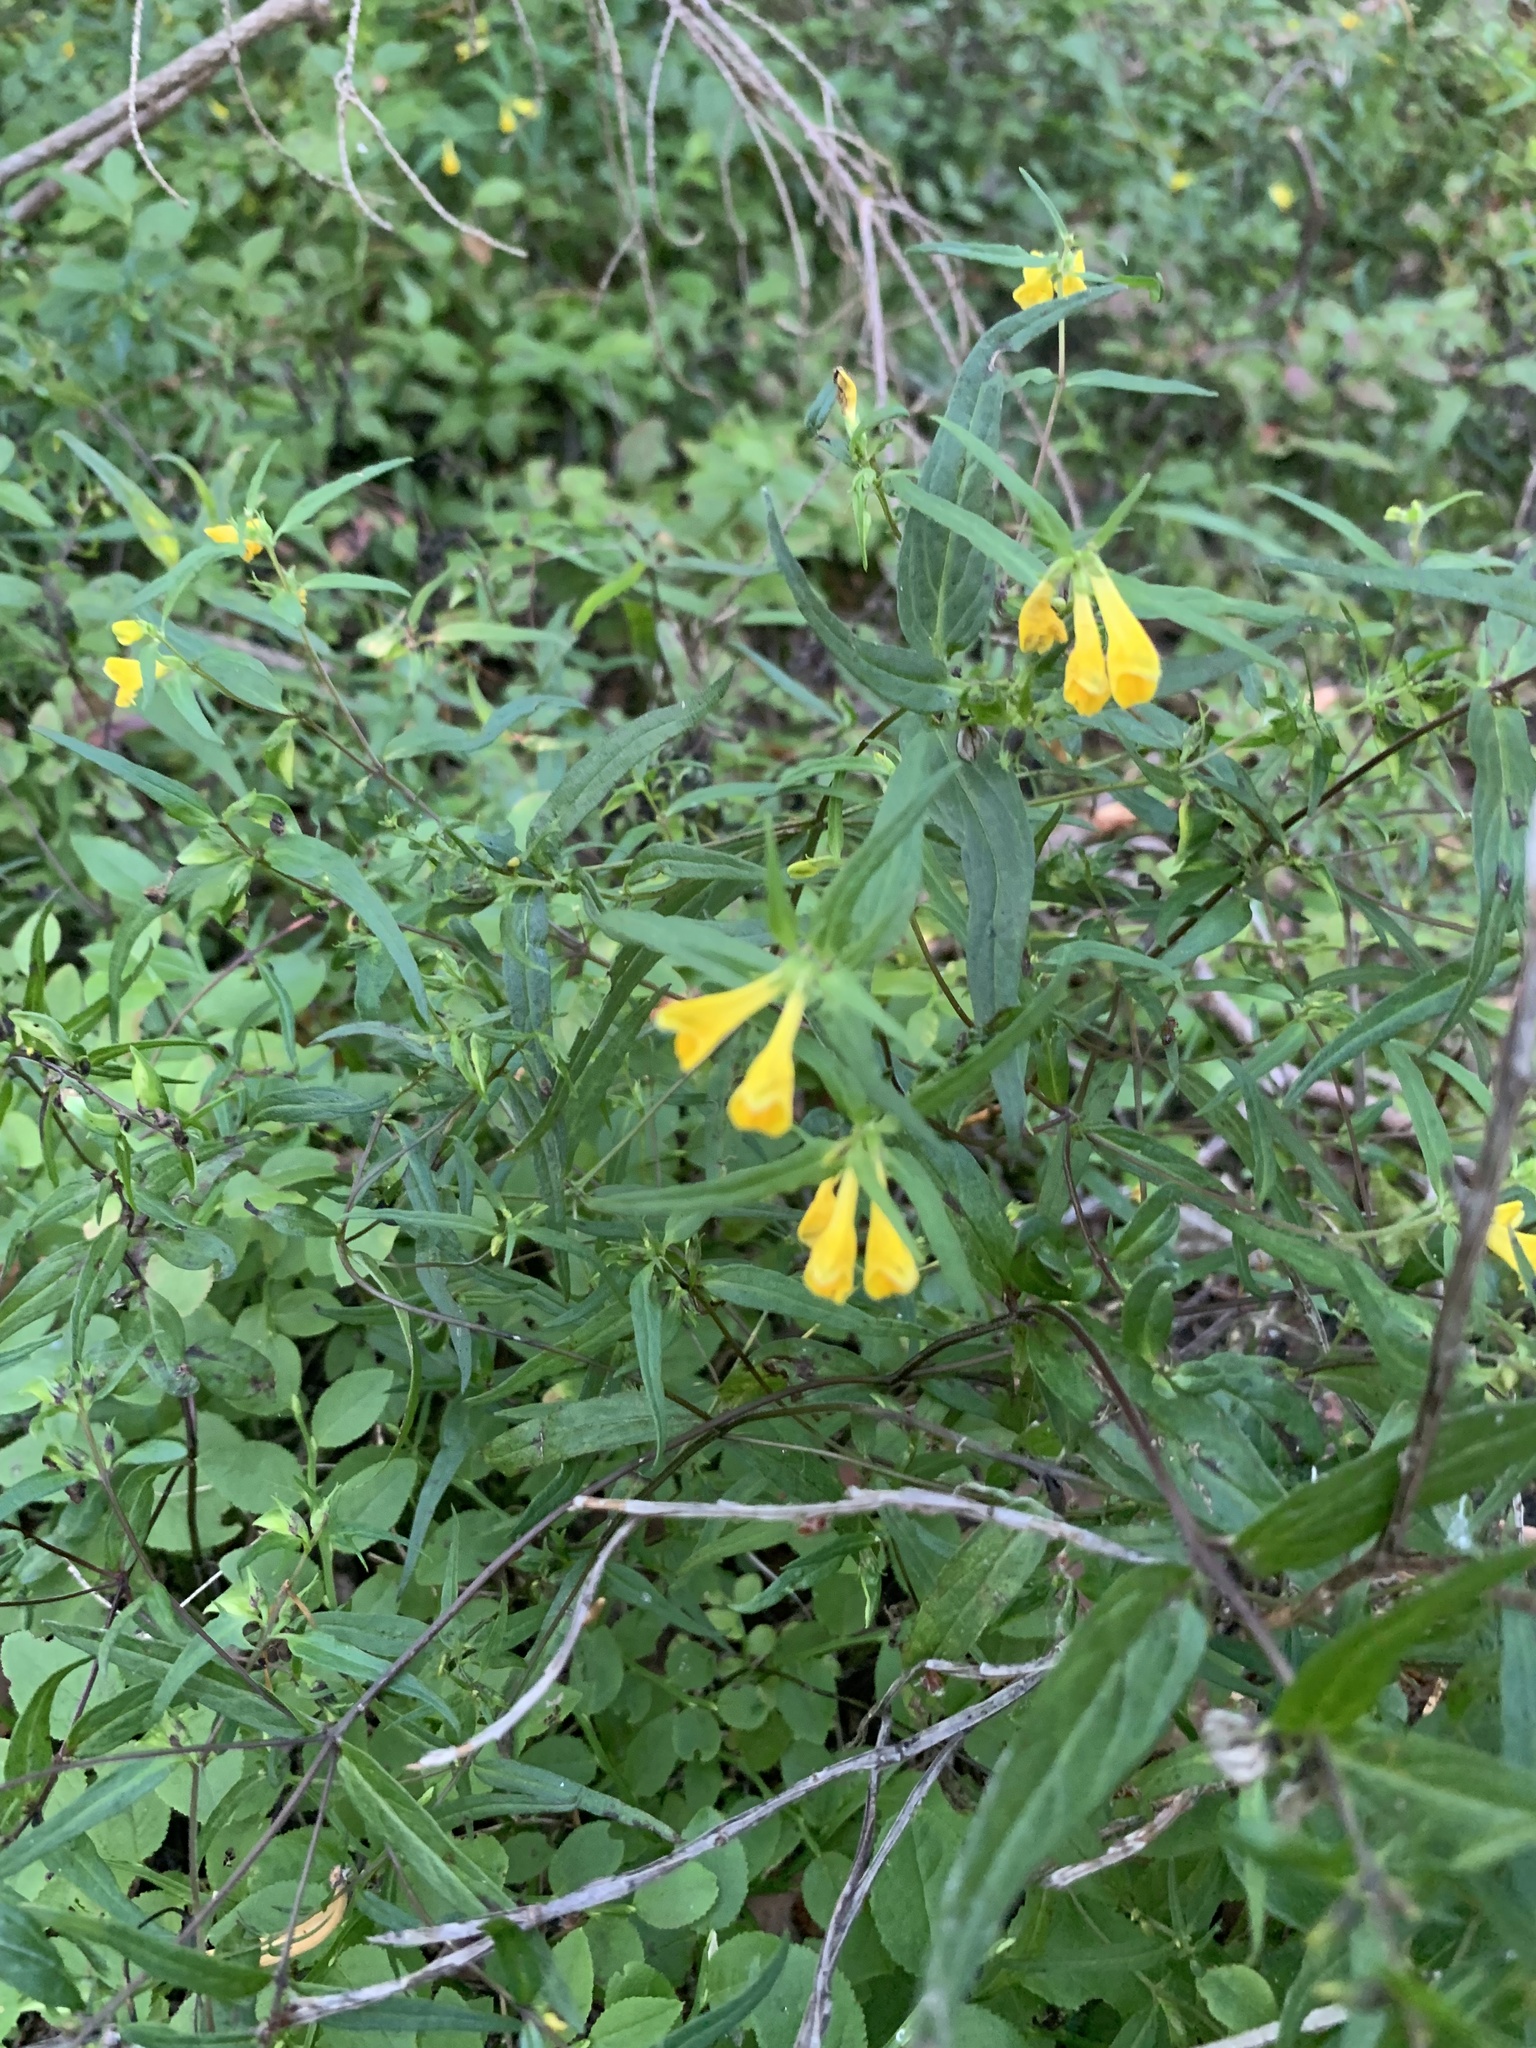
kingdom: Plantae
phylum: Tracheophyta
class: Magnoliopsida
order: Lamiales
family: Orobanchaceae
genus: Melampyrum
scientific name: Melampyrum pratense
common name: Common cow-wheat
